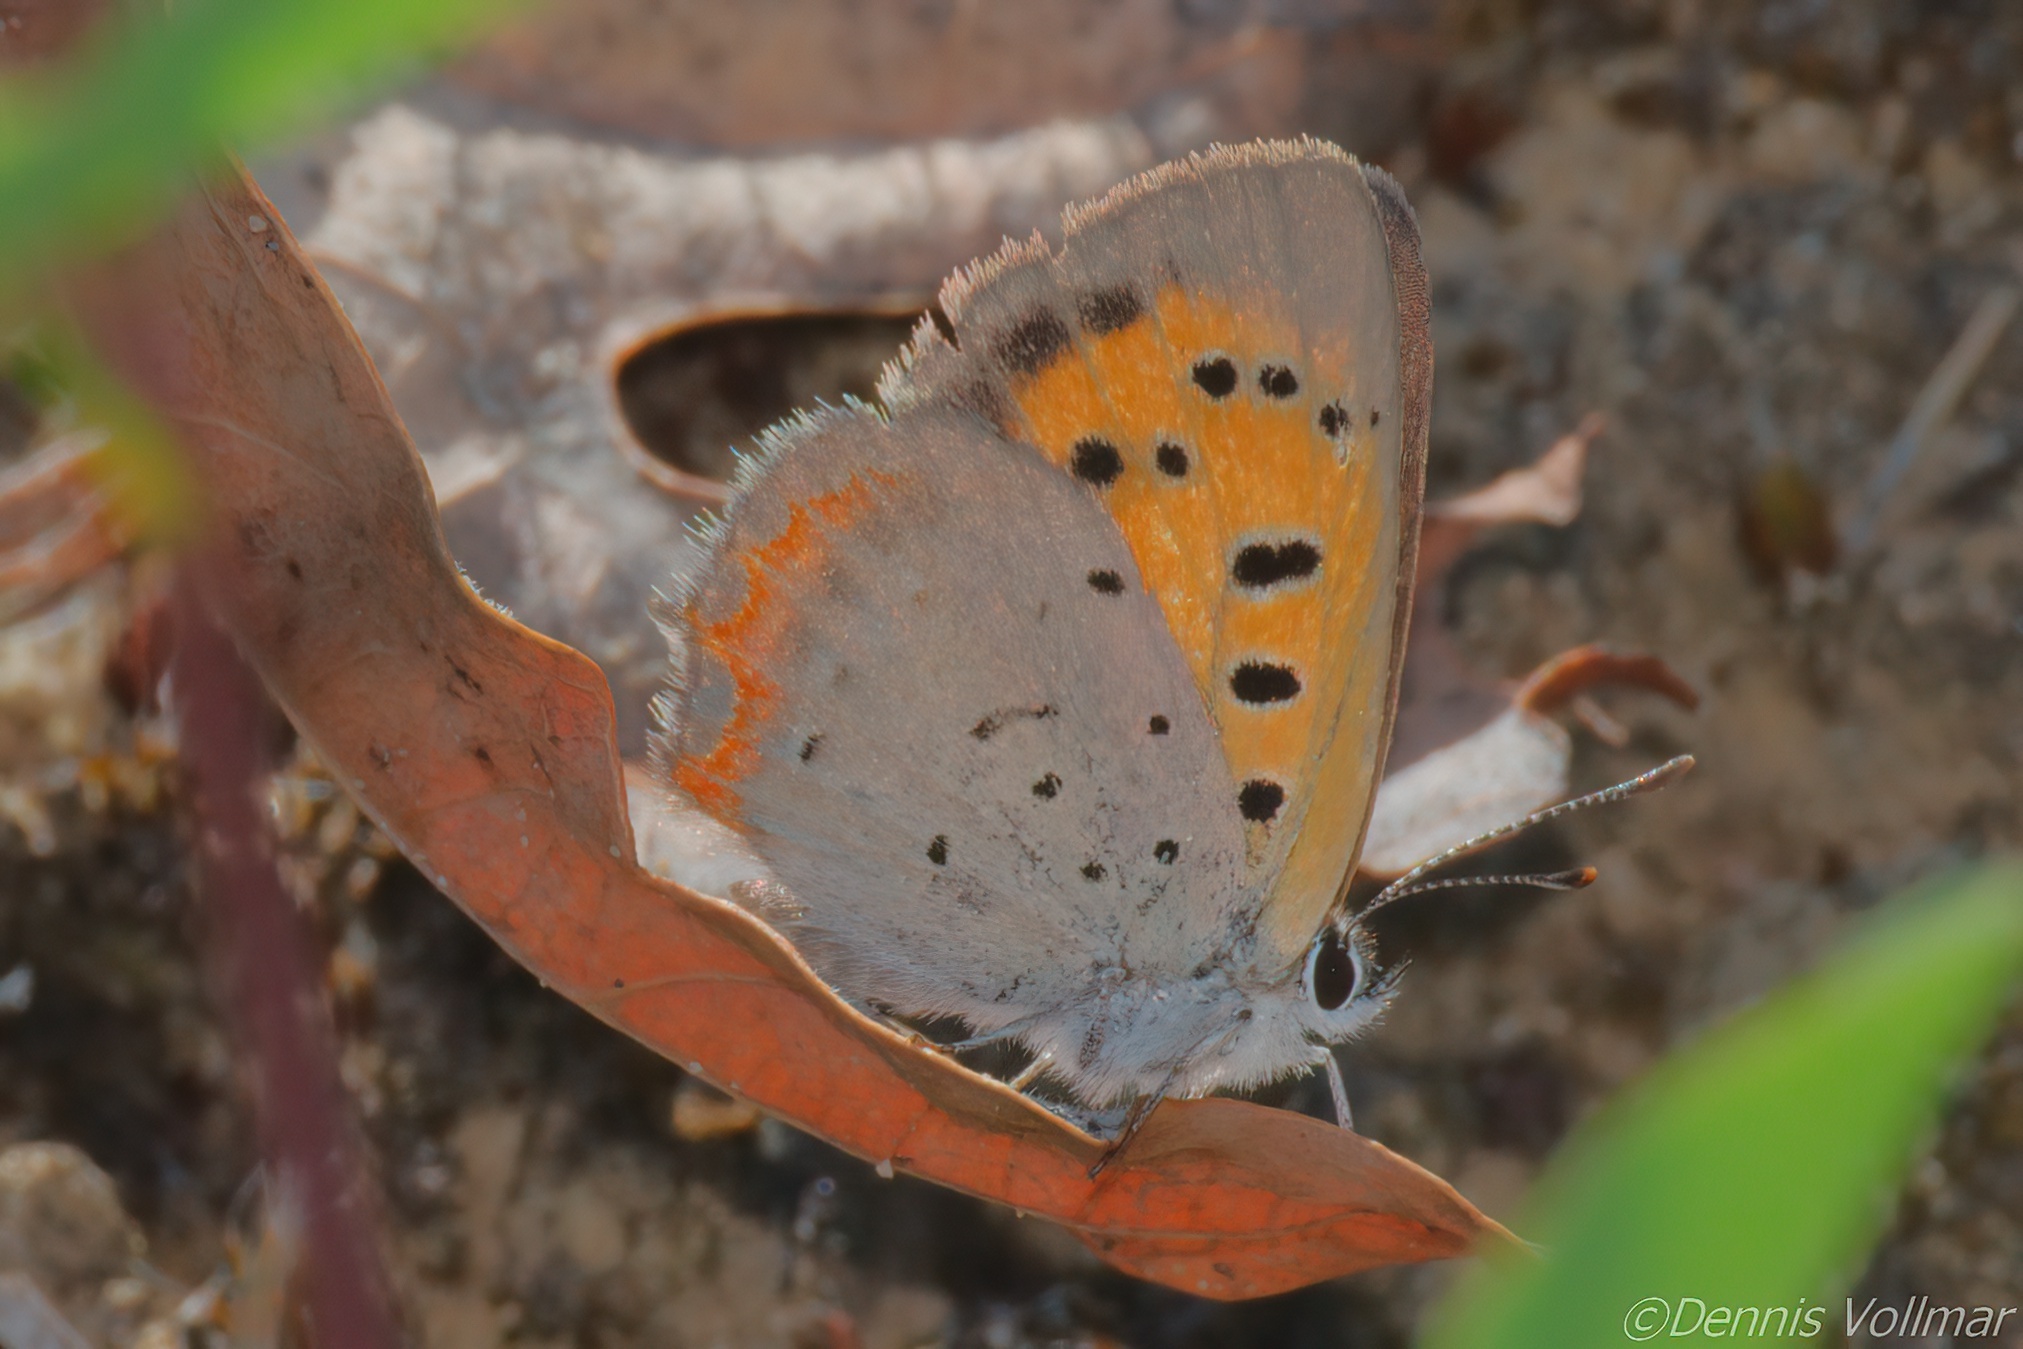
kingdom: Animalia
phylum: Arthropoda
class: Insecta
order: Lepidoptera
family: Lycaenidae
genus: Lycaena
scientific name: Lycaena hypophlaeas
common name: American copper
